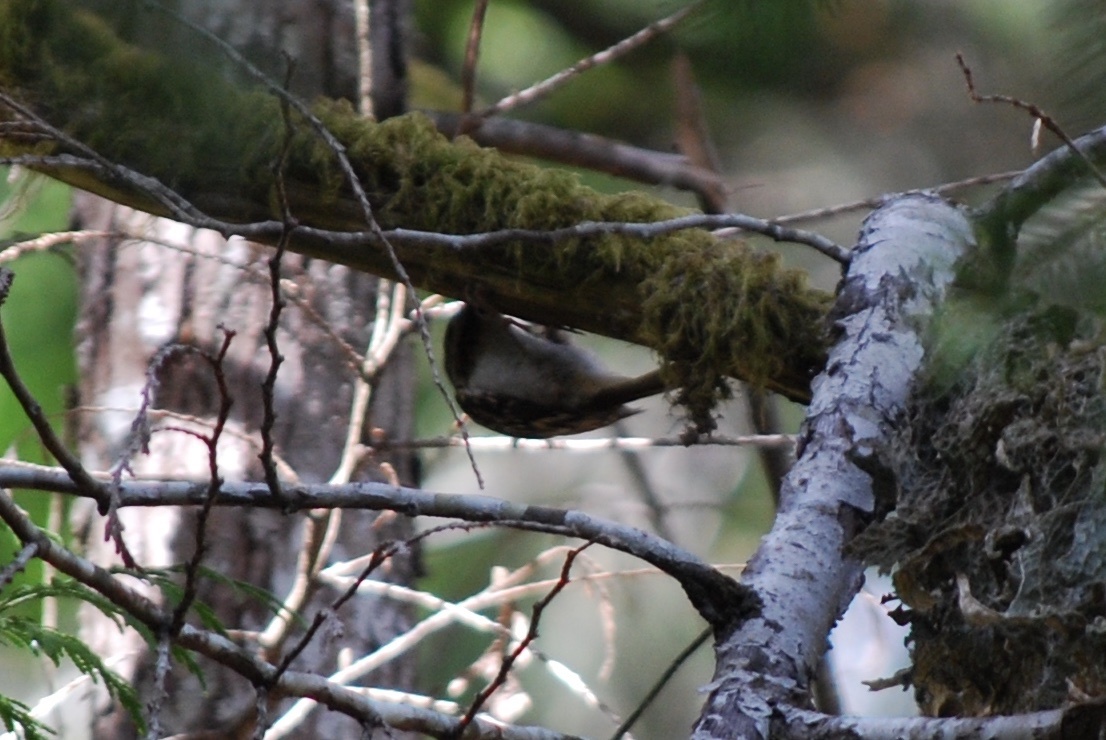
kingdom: Animalia
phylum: Chordata
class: Aves
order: Passeriformes
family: Certhiidae
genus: Certhia
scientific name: Certhia americana
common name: Brown creeper
